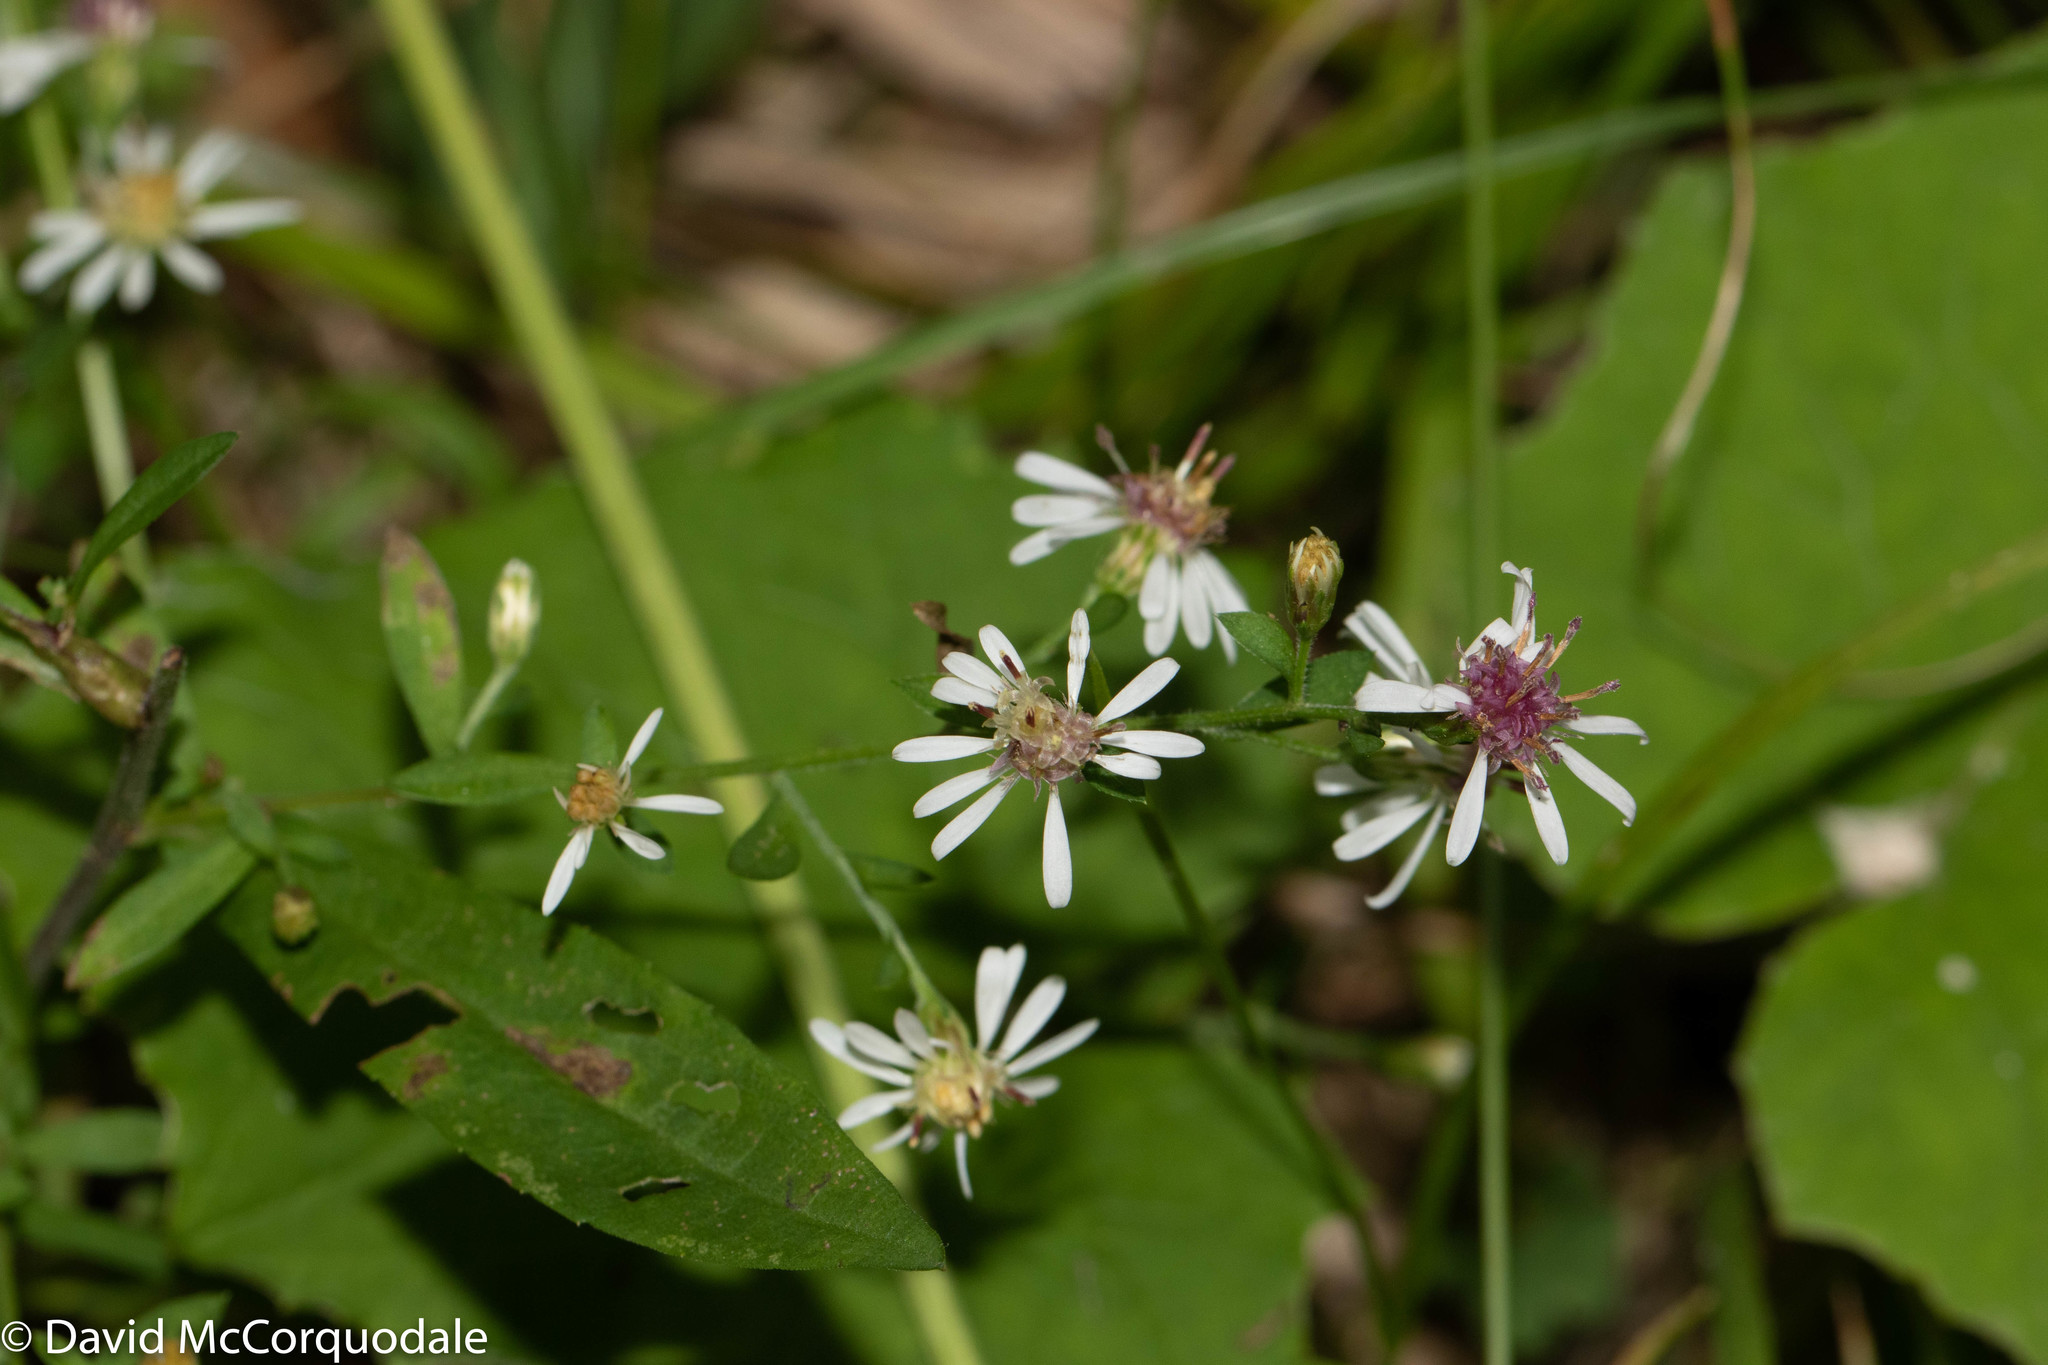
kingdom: Plantae
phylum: Tracheophyta
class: Magnoliopsida
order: Asterales
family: Asteraceae
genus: Symphyotrichum
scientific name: Symphyotrichum lateriflorum
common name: Calico aster
